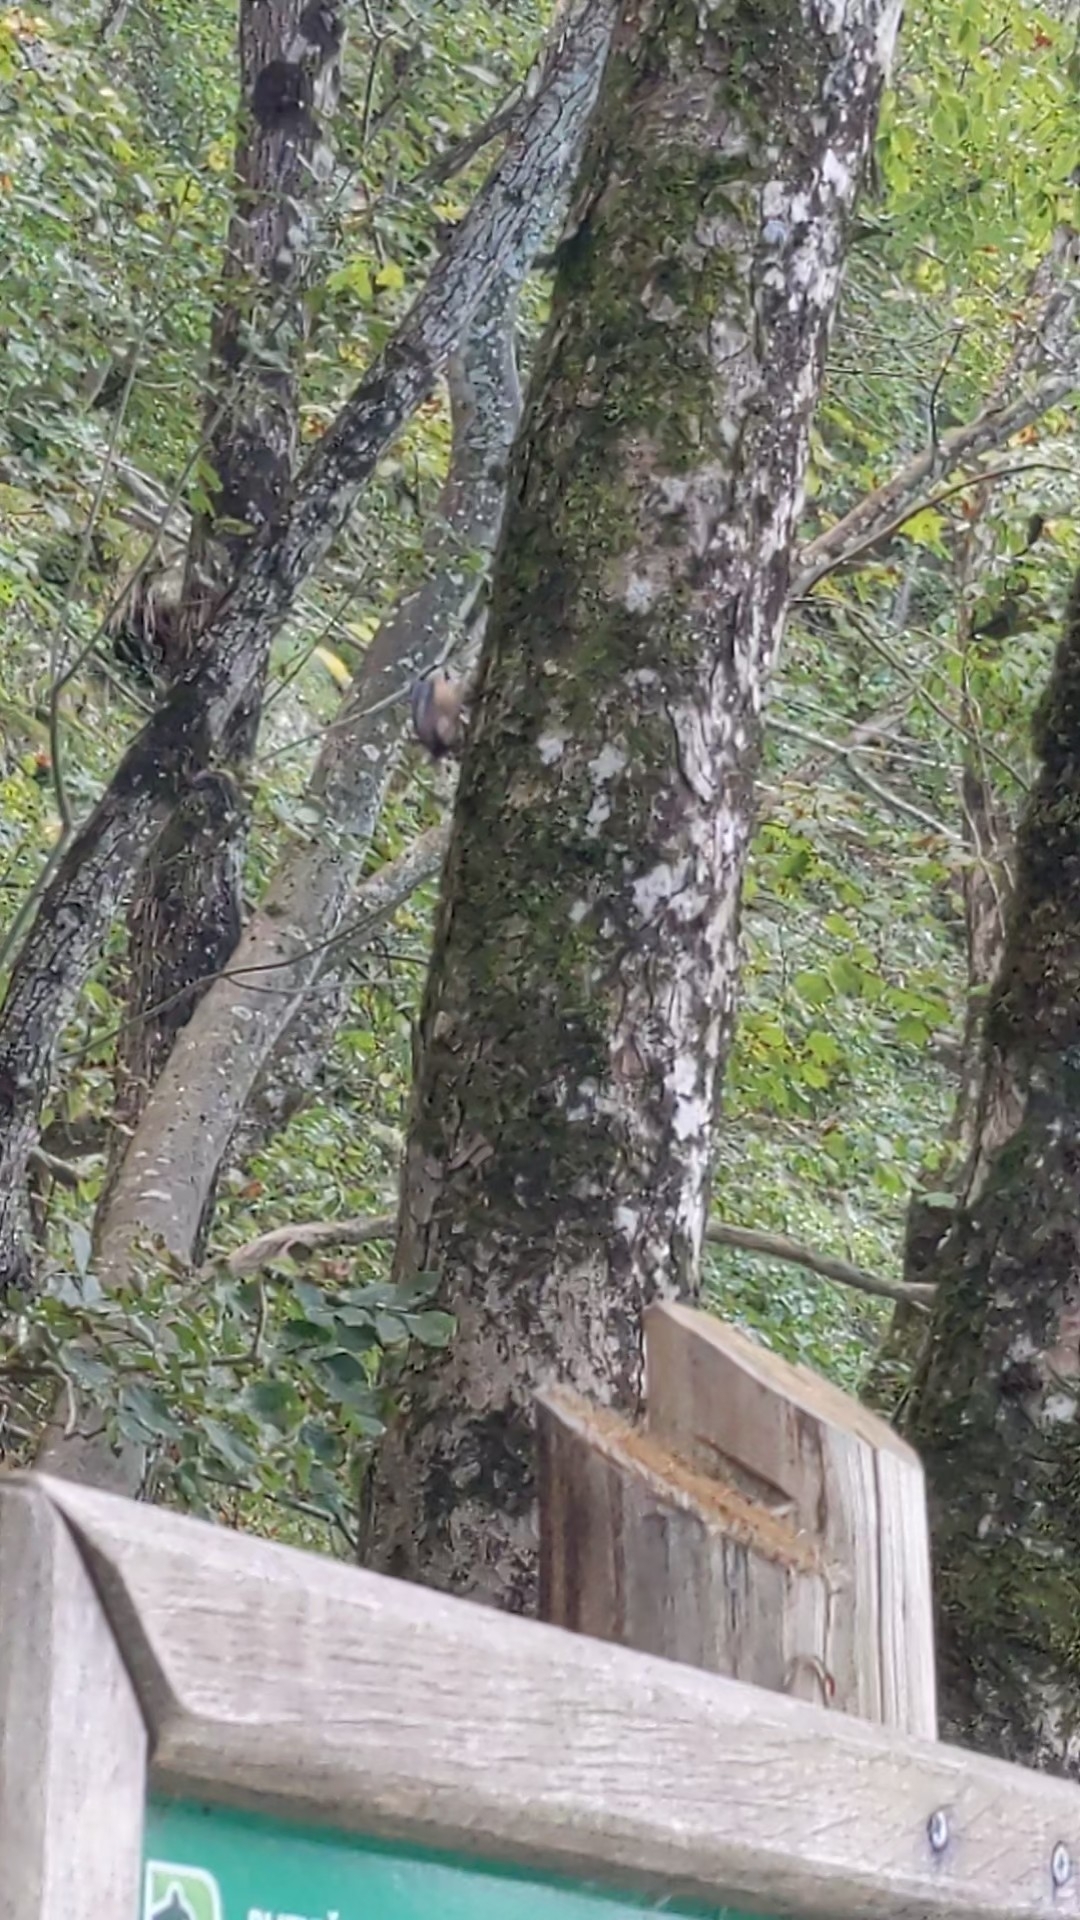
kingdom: Animalia
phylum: Chordata
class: Aves
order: Passeriformes
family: Sittidae
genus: Sitta
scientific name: Sitta europaea
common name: Eurasian nuthatch
